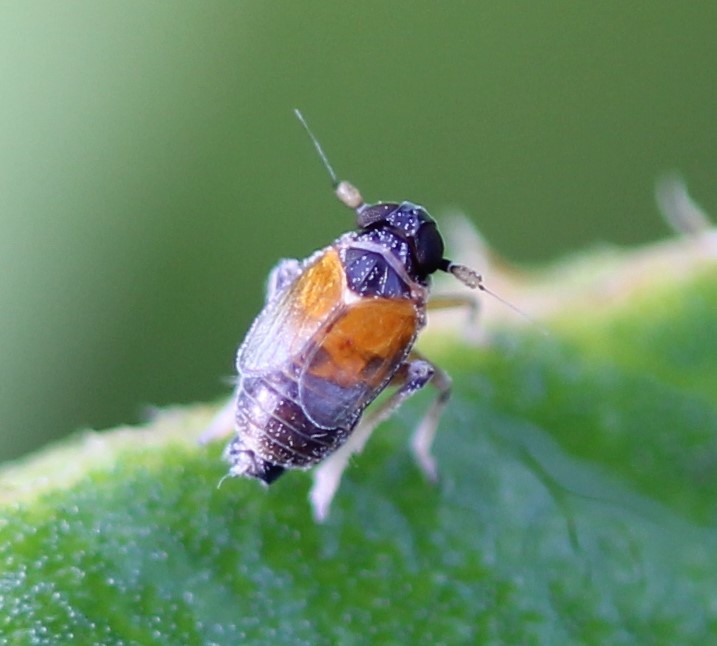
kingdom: Animalia
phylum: Arthropoda
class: Insecta
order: Hemiptera
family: Delphacidae
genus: Flavoclypeus
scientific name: Flavoclypeus andromedus
